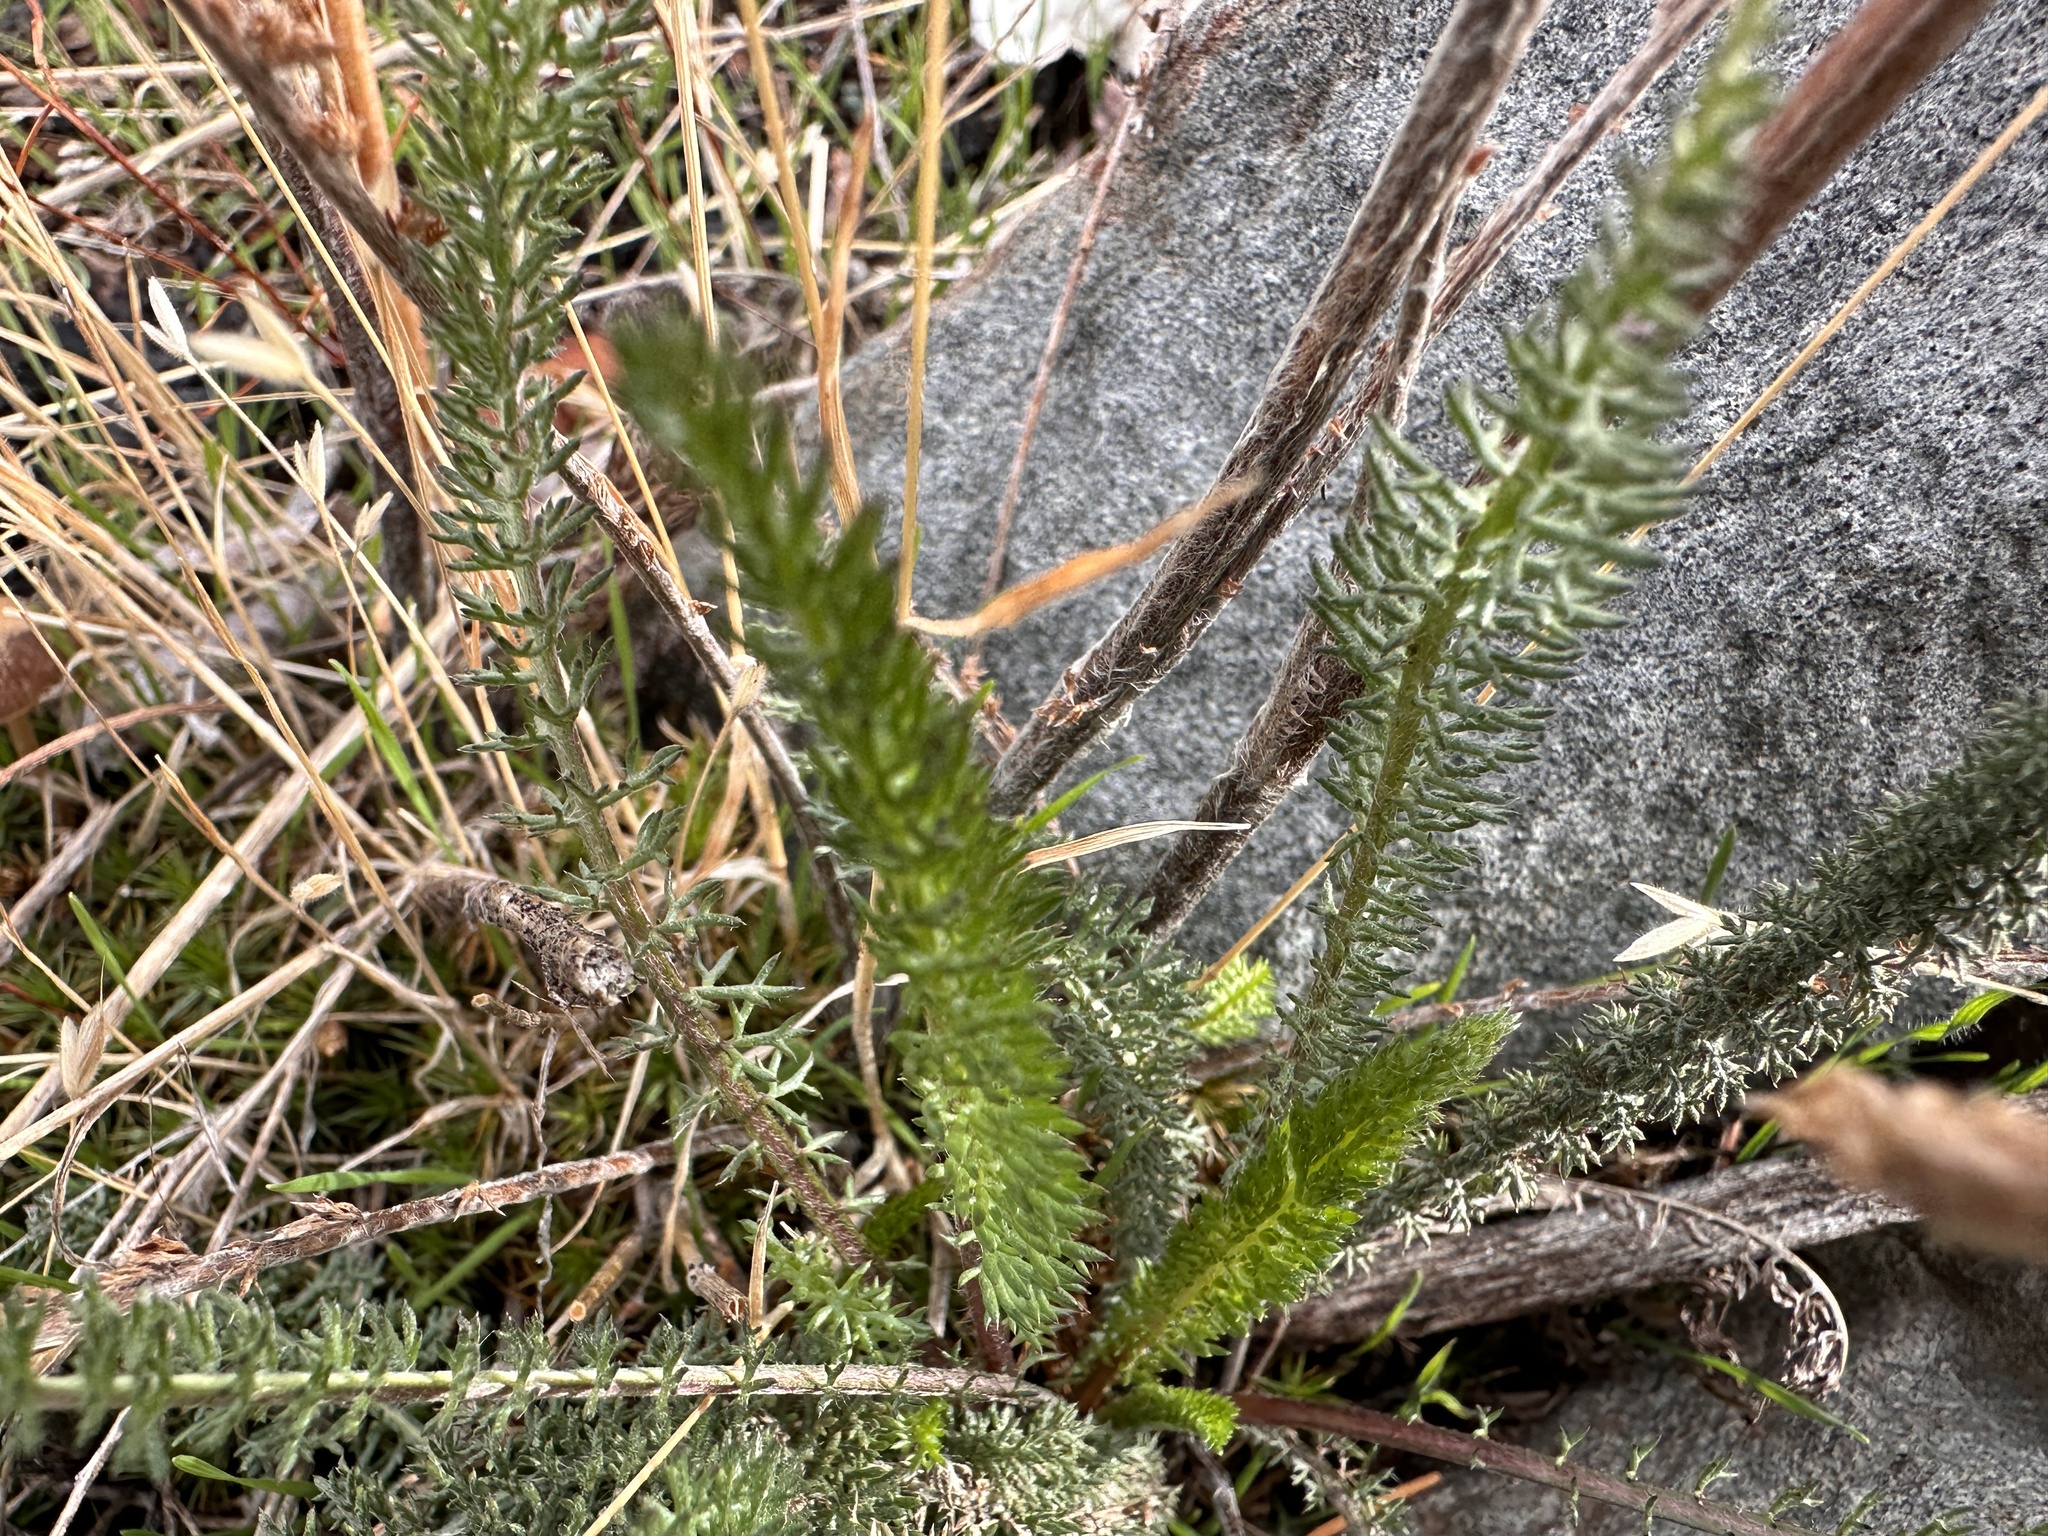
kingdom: Plantae
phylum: Tracheophyta
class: Magnoliopsida
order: Asterales
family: Asteraceae
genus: Achillea
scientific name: Achillea millefolium
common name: Yarrow
